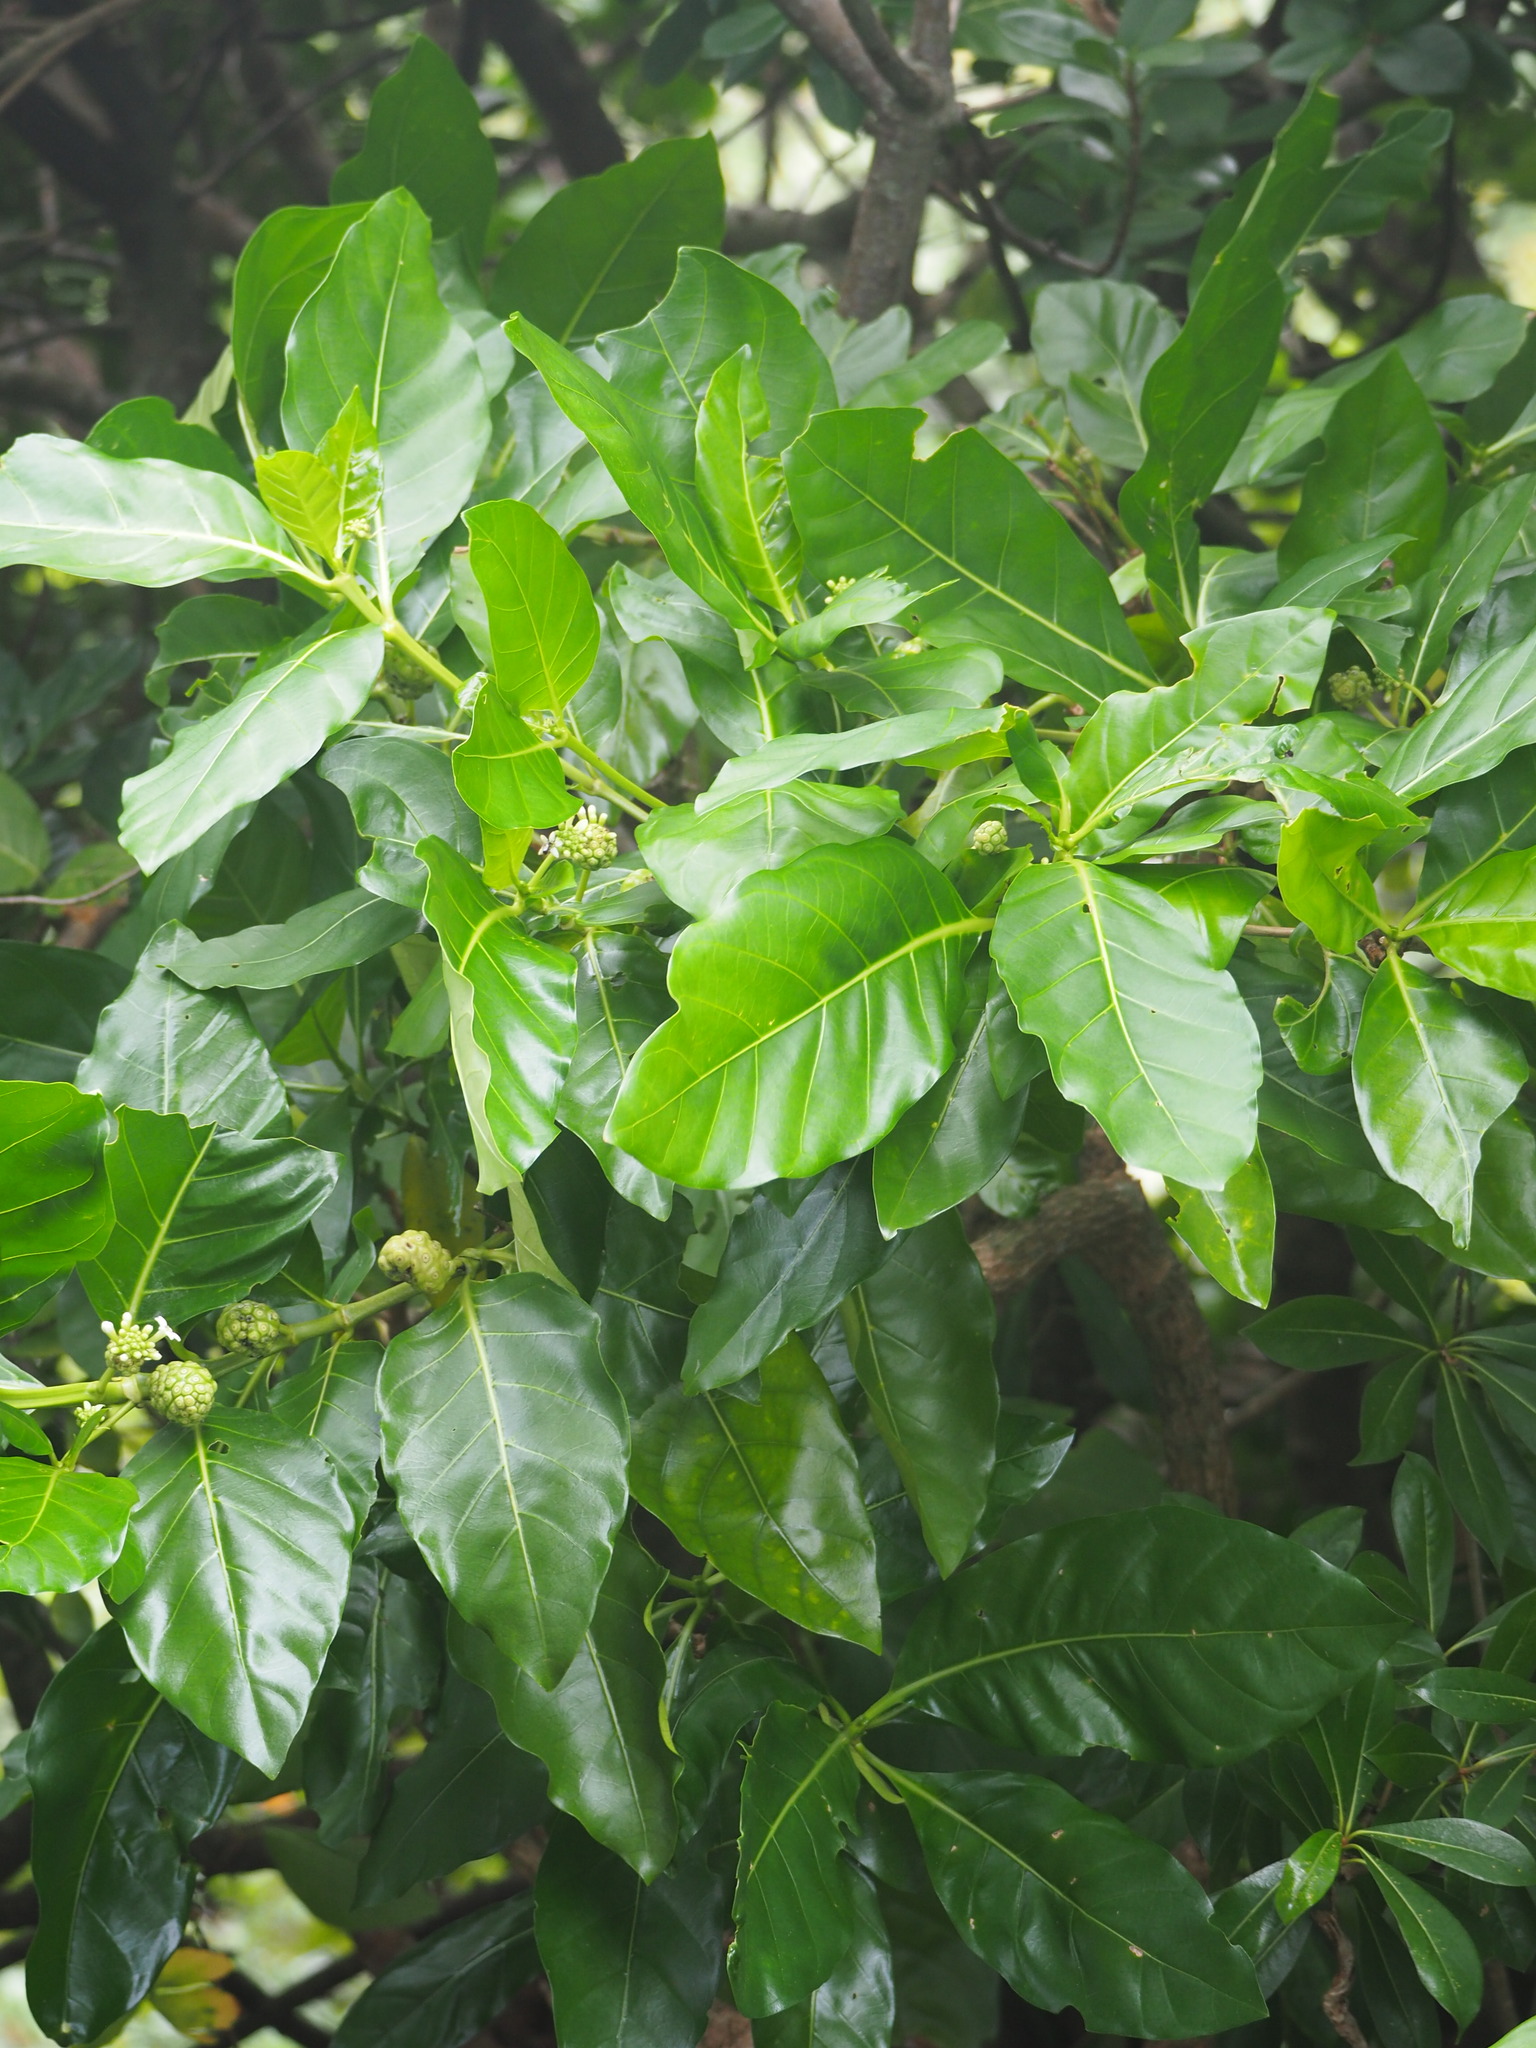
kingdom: Plantae
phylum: Tracheophyta
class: Magnoliopsida
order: Gentianales
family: Rubiaceae
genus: Morinda
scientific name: Morinda citrifolia
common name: Indian-mulberry
